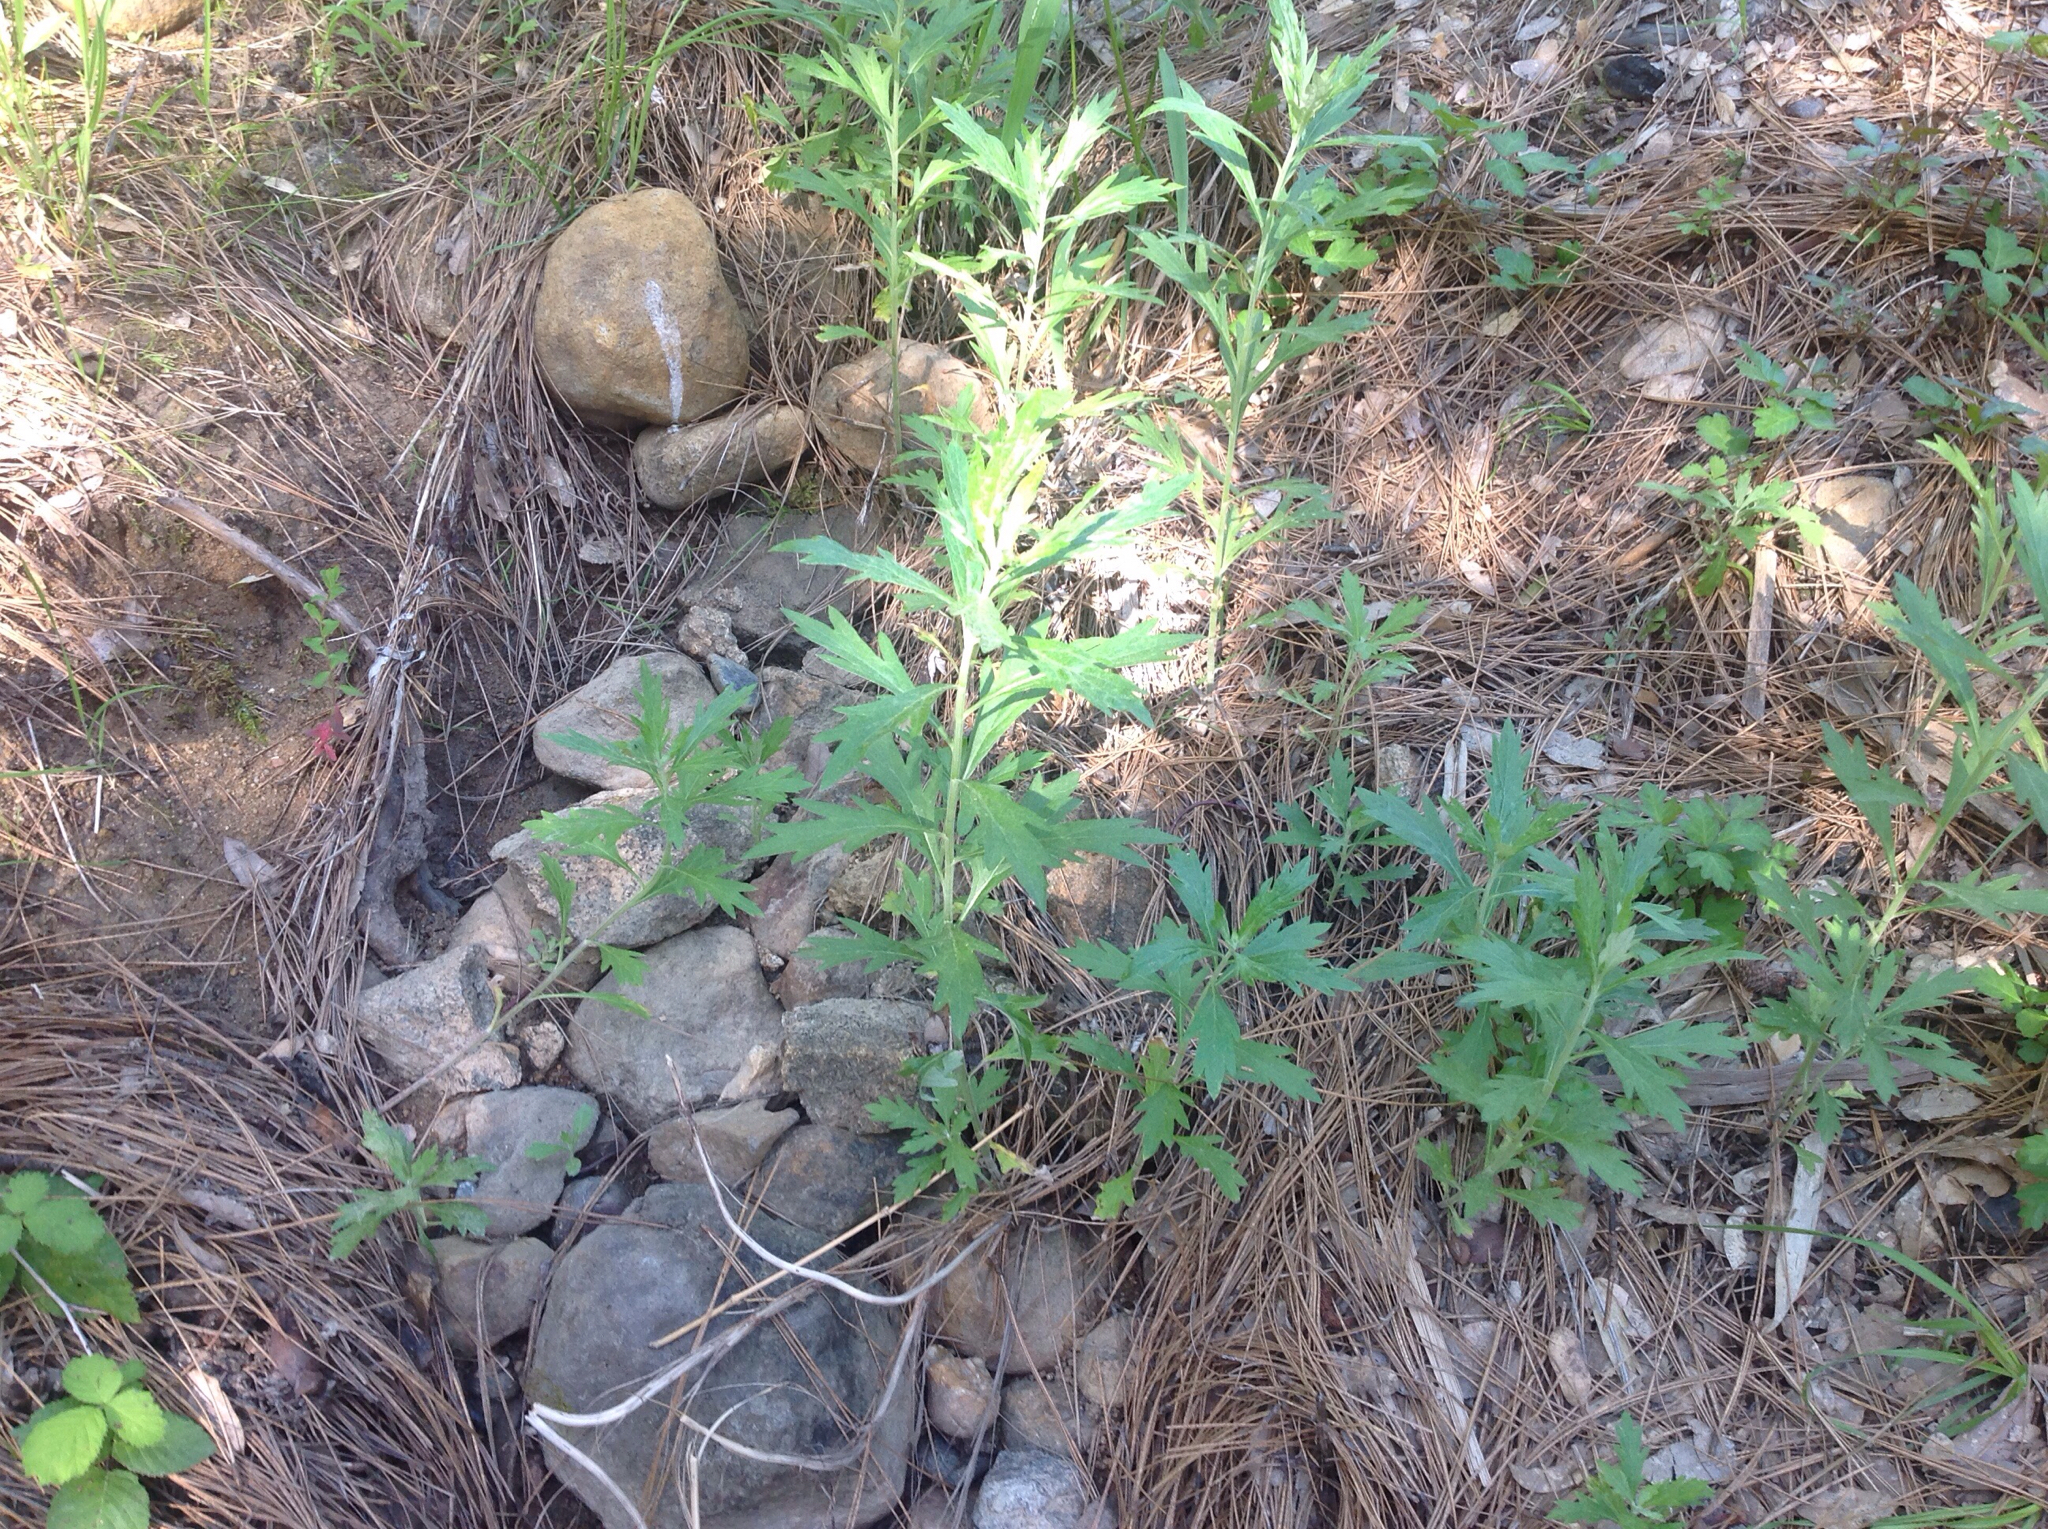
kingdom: Plantae
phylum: Tracheophyta
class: Magnoliopsida
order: Asterales
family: Asteraceae
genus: Artemisia
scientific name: Artemisia douglasiana
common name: Northwest mugwort
